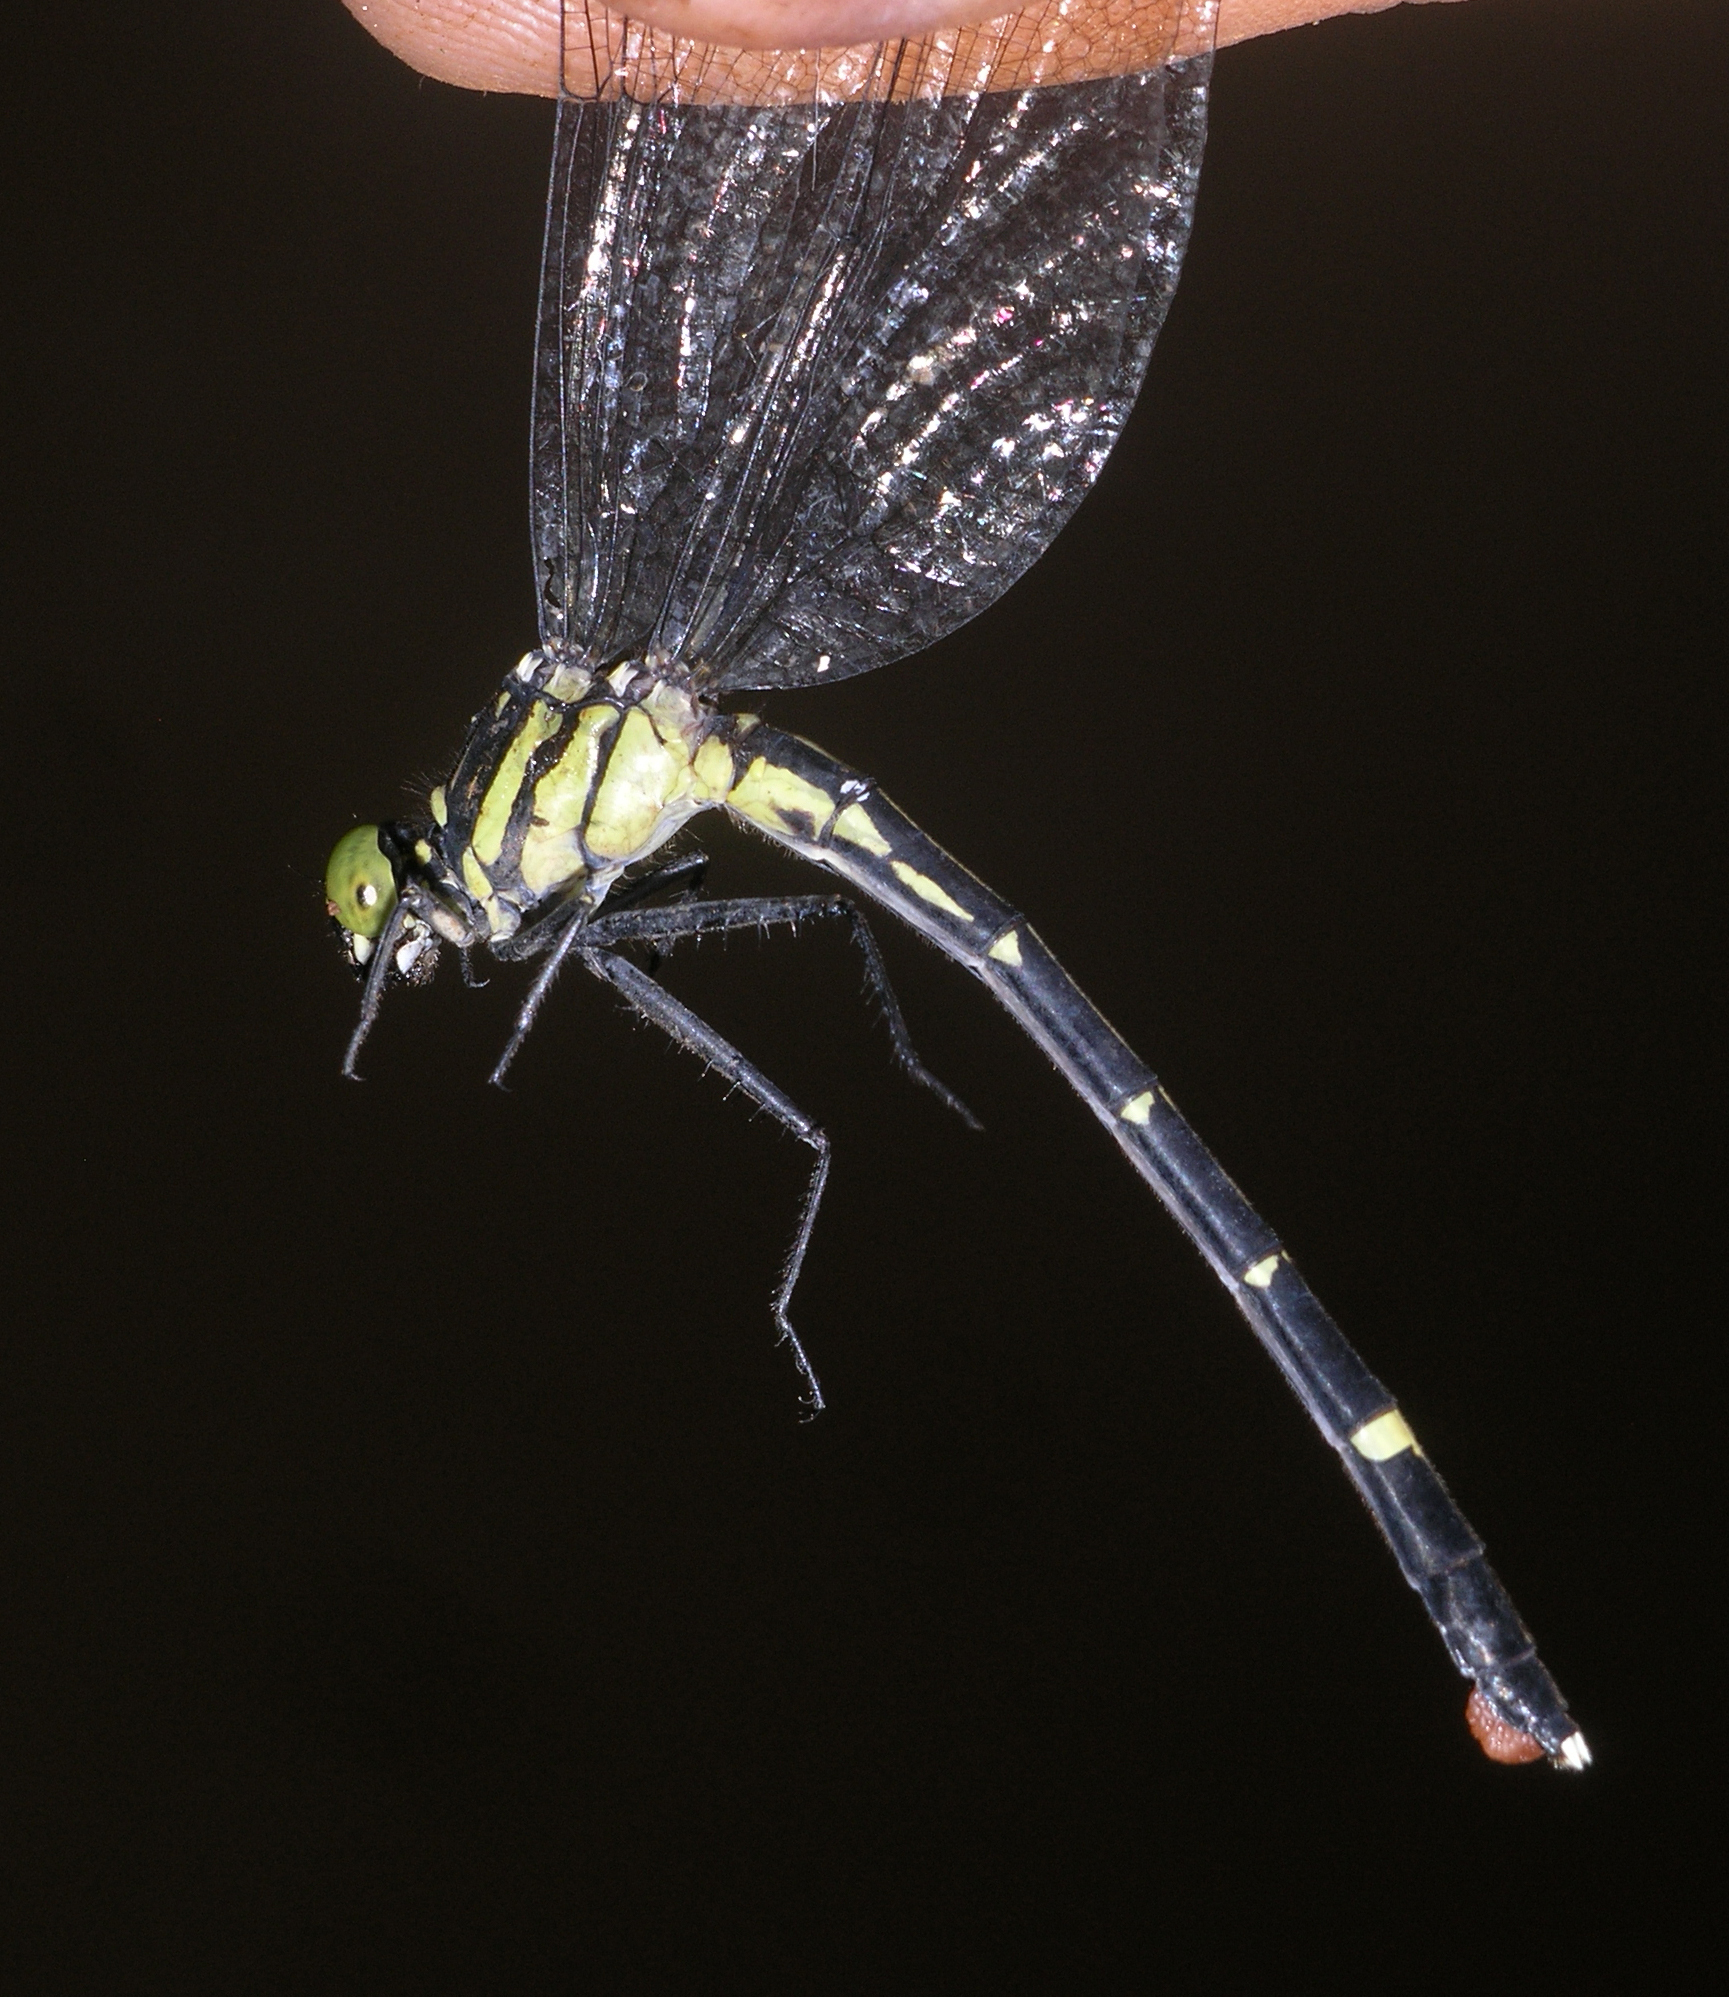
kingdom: Animalia
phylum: Arthropoda
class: Insecta
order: Odonata
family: Gomphidae
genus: Euthygomphus
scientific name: Euthygomphus schorri
